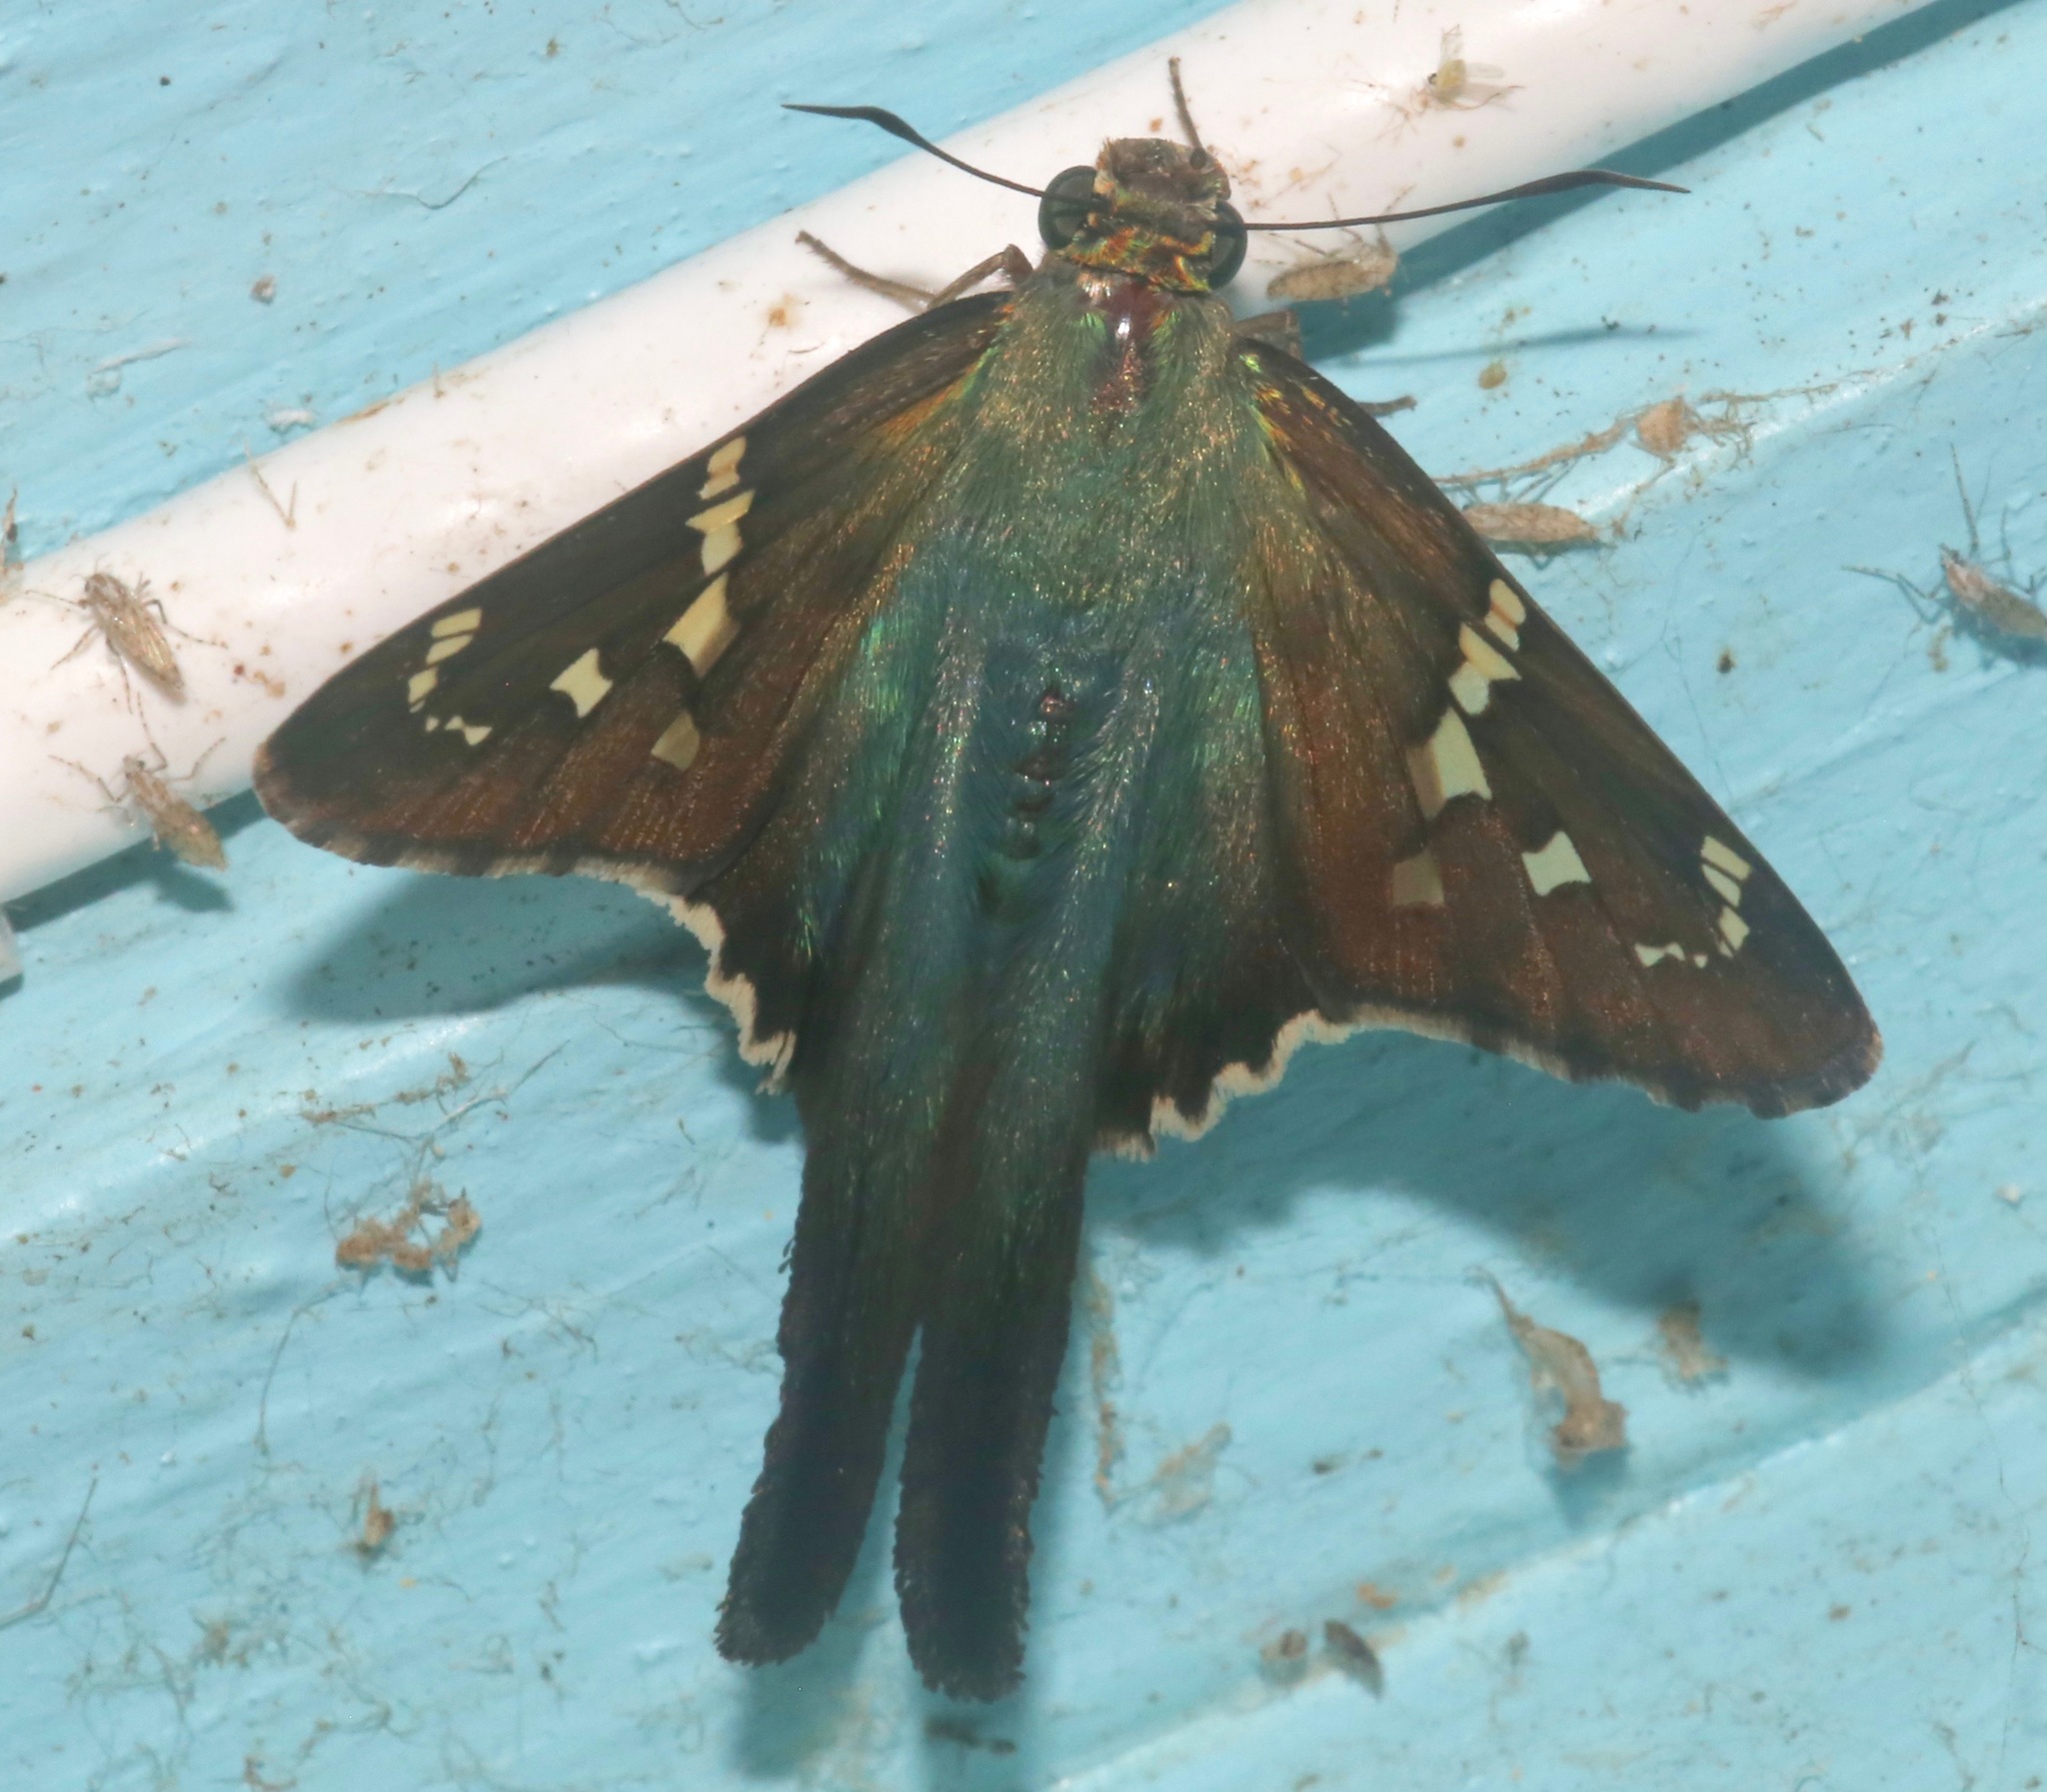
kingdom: Animalia
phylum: Arthropoda
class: Insecta
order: Lepidoptera
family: Hesperiidae
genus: Urbanus
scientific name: Urbanus proteus
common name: Long-tailed skipper
